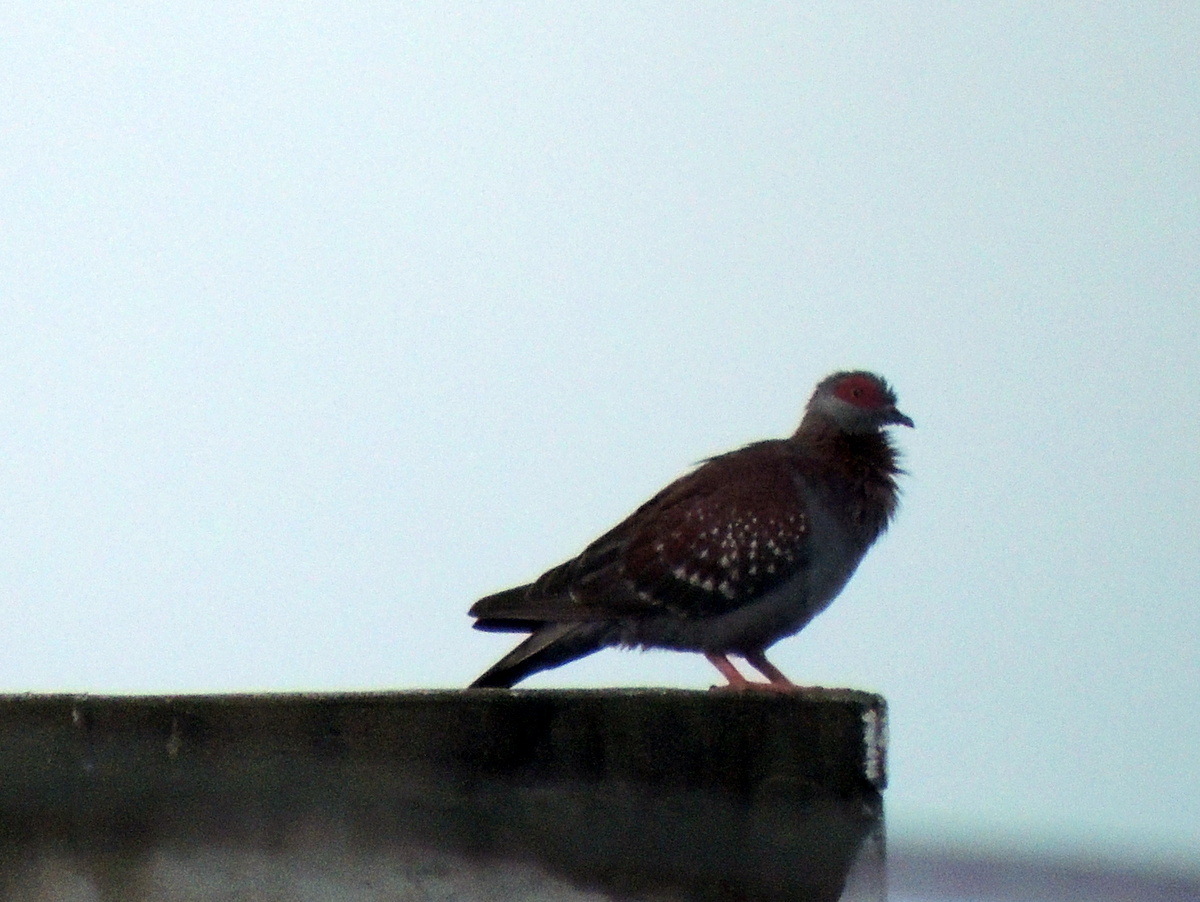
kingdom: Animalia
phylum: Chordata
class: Aves
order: Columbiformes
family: Columbidae
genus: Columba
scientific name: Columba guinea
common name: Speckled pigeon
